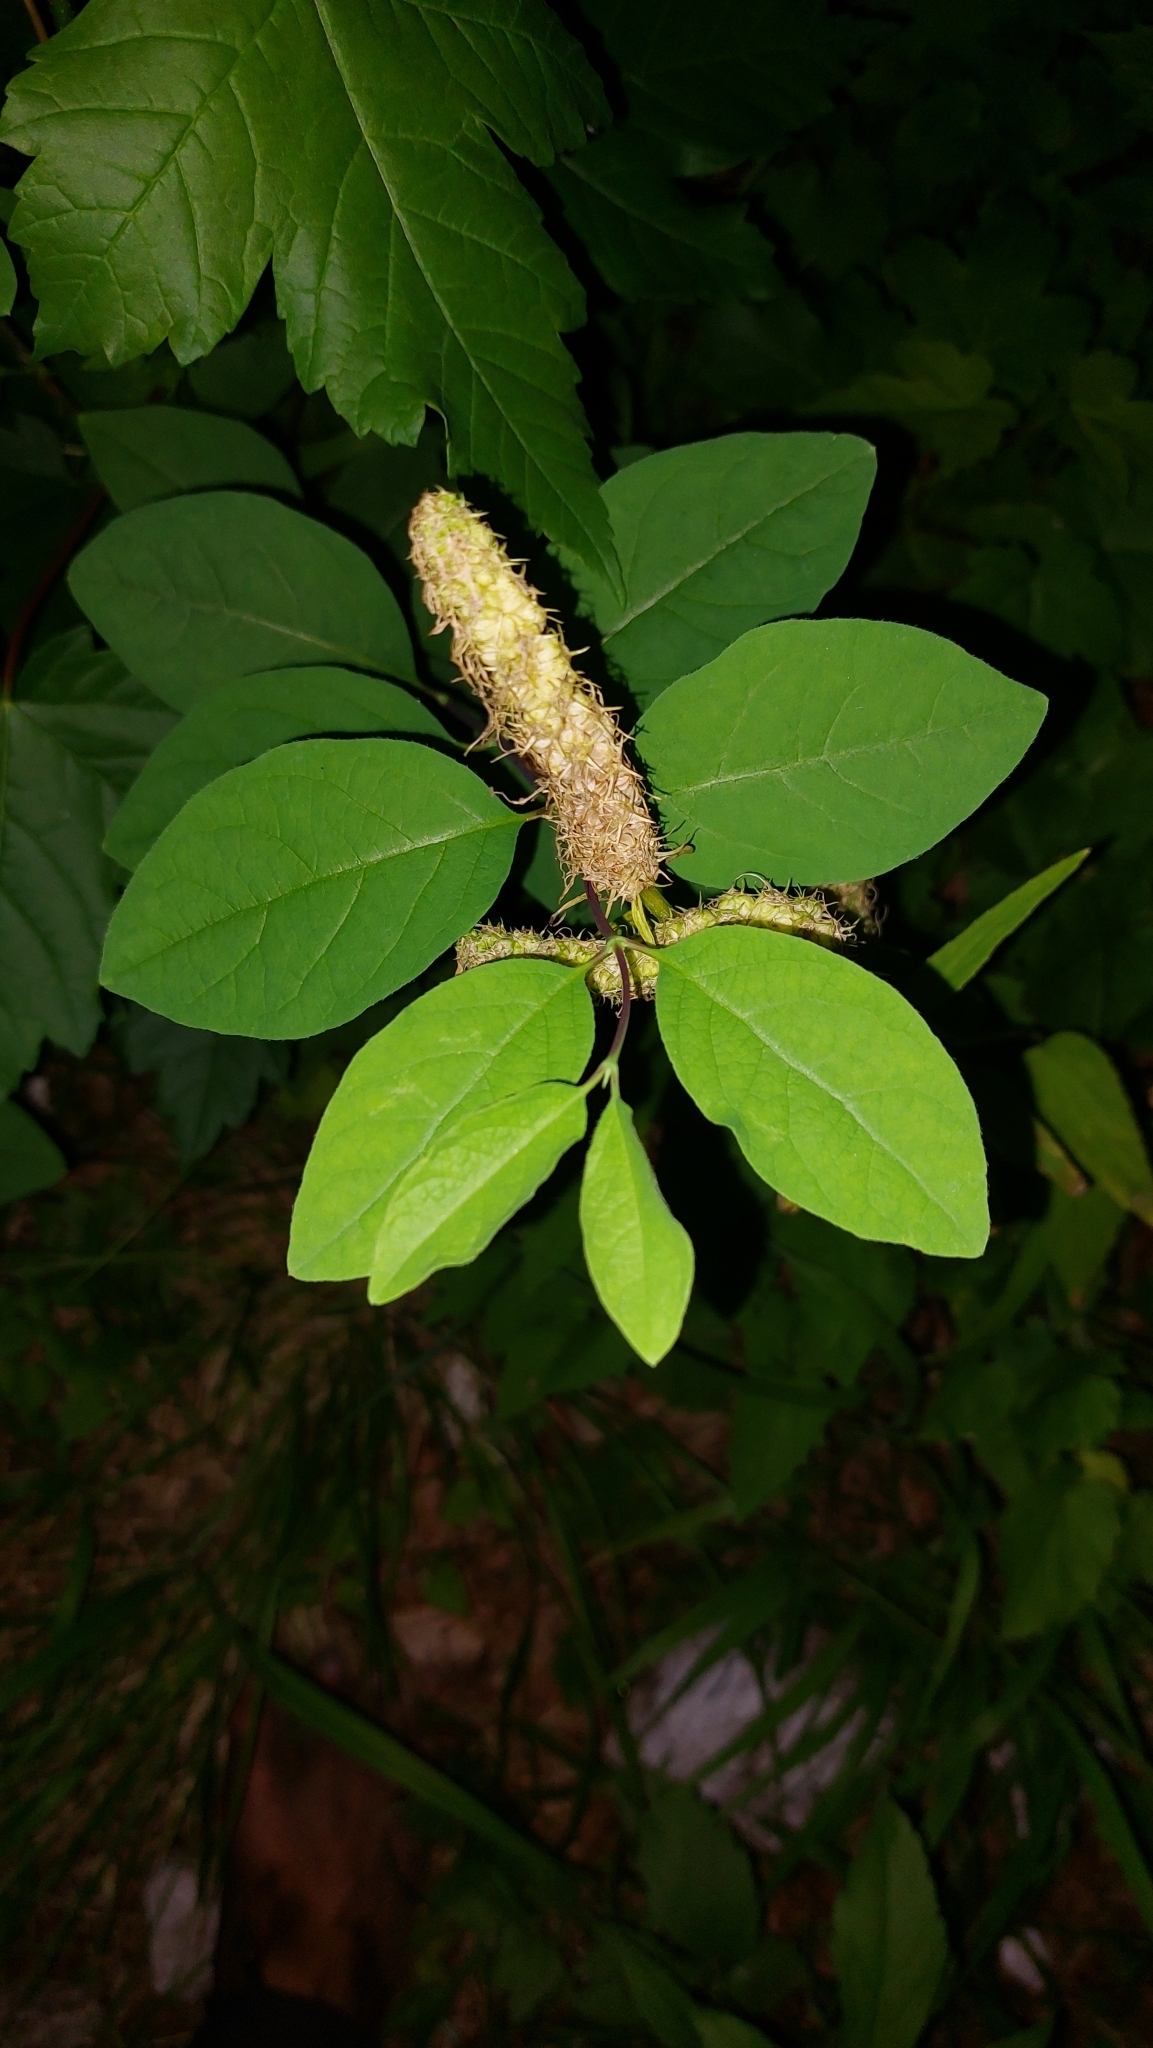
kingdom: Plantae
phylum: Tracheophyta
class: Magnoliopsida
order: Asterales
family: Campanulaceae
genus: Phyteuma
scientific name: Phyteuma spicatum
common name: Spiked rampion
